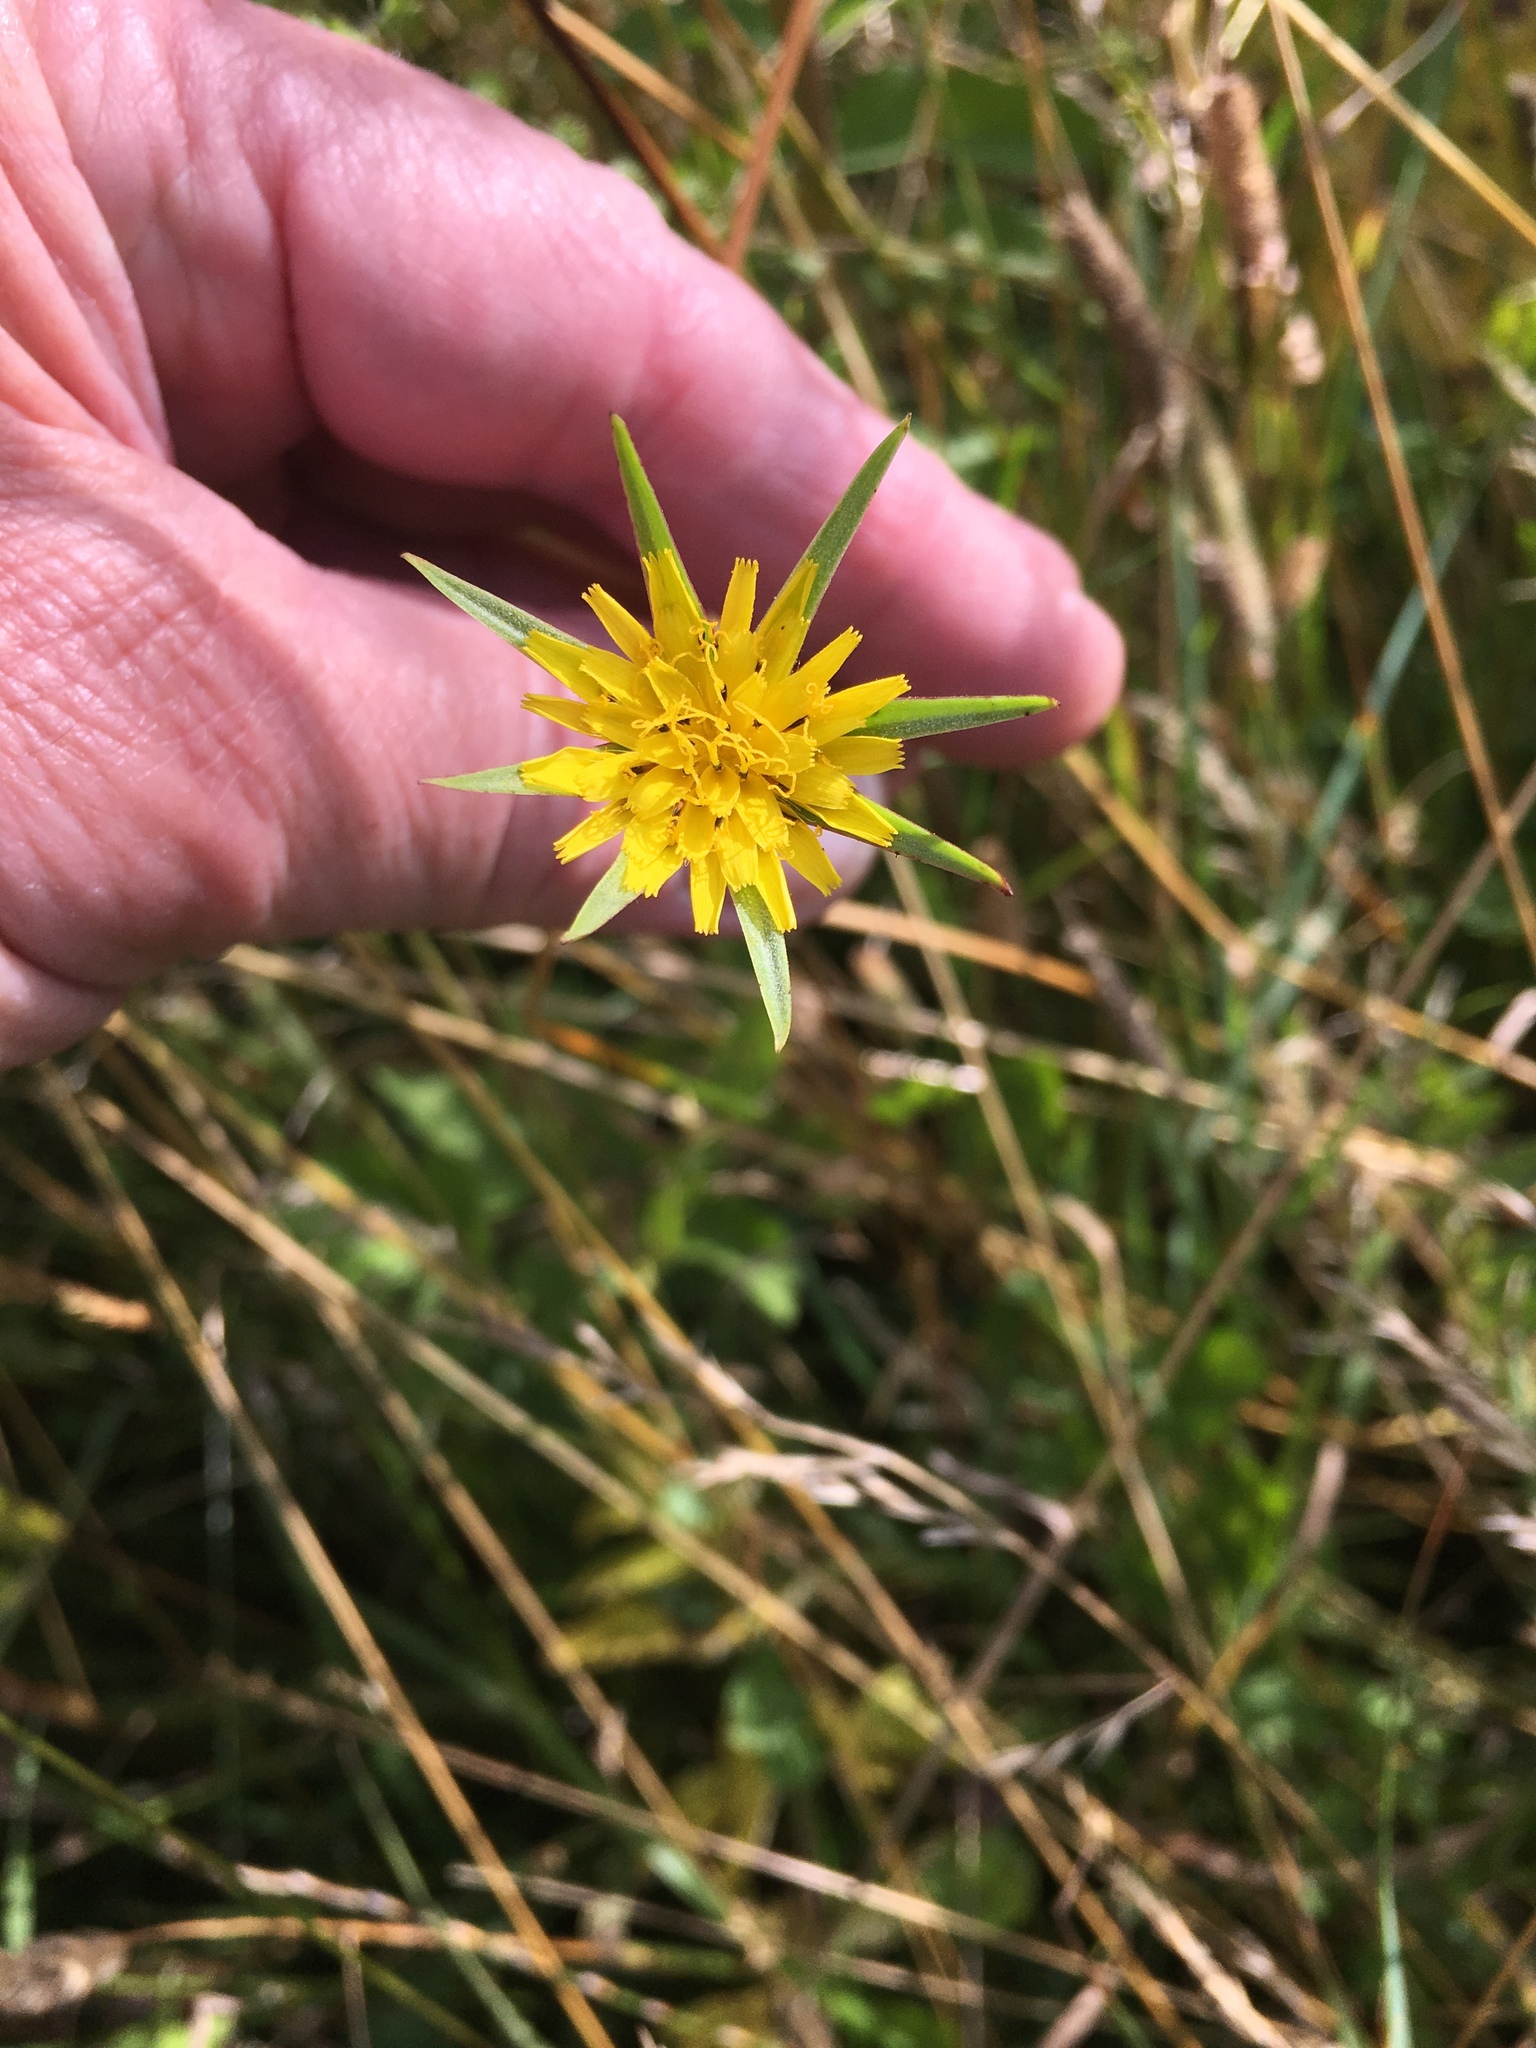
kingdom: Plantae
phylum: Tracheophyta
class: Magnoliopsida
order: Asterales
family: Asteraceae
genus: Tragopogon
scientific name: Tragopogon minor
